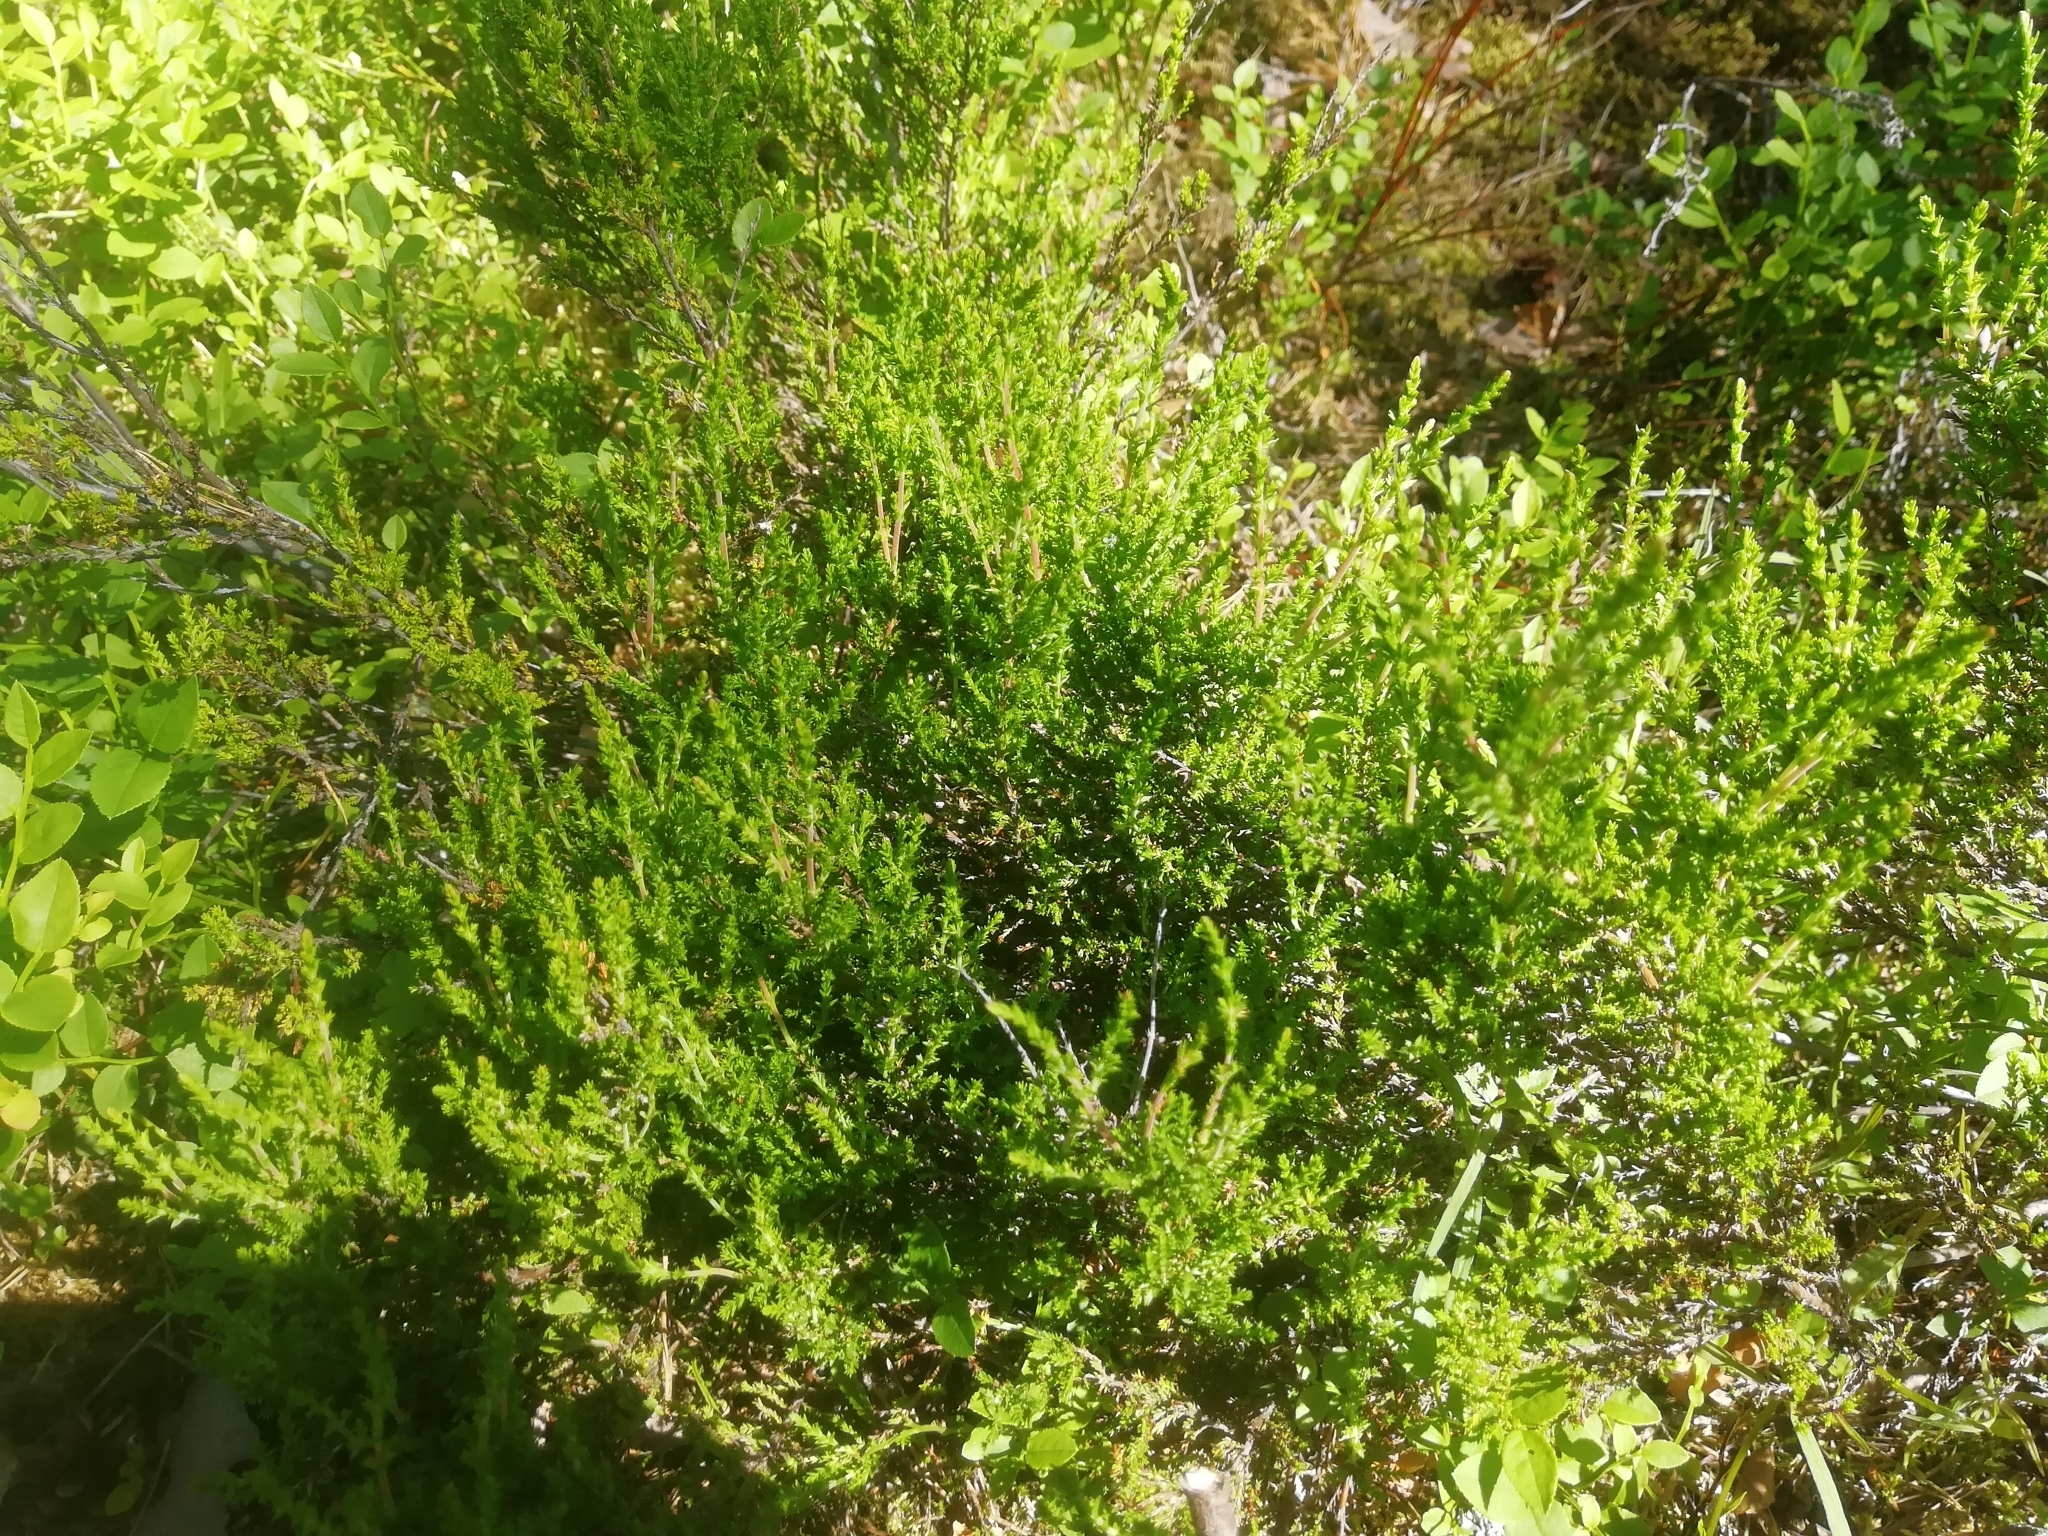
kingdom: Plantae
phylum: Tracheophyta
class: Magnoliopsida
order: Ericales
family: Ericaceae
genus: Calluna
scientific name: Calluna vulgaris
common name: Heather
